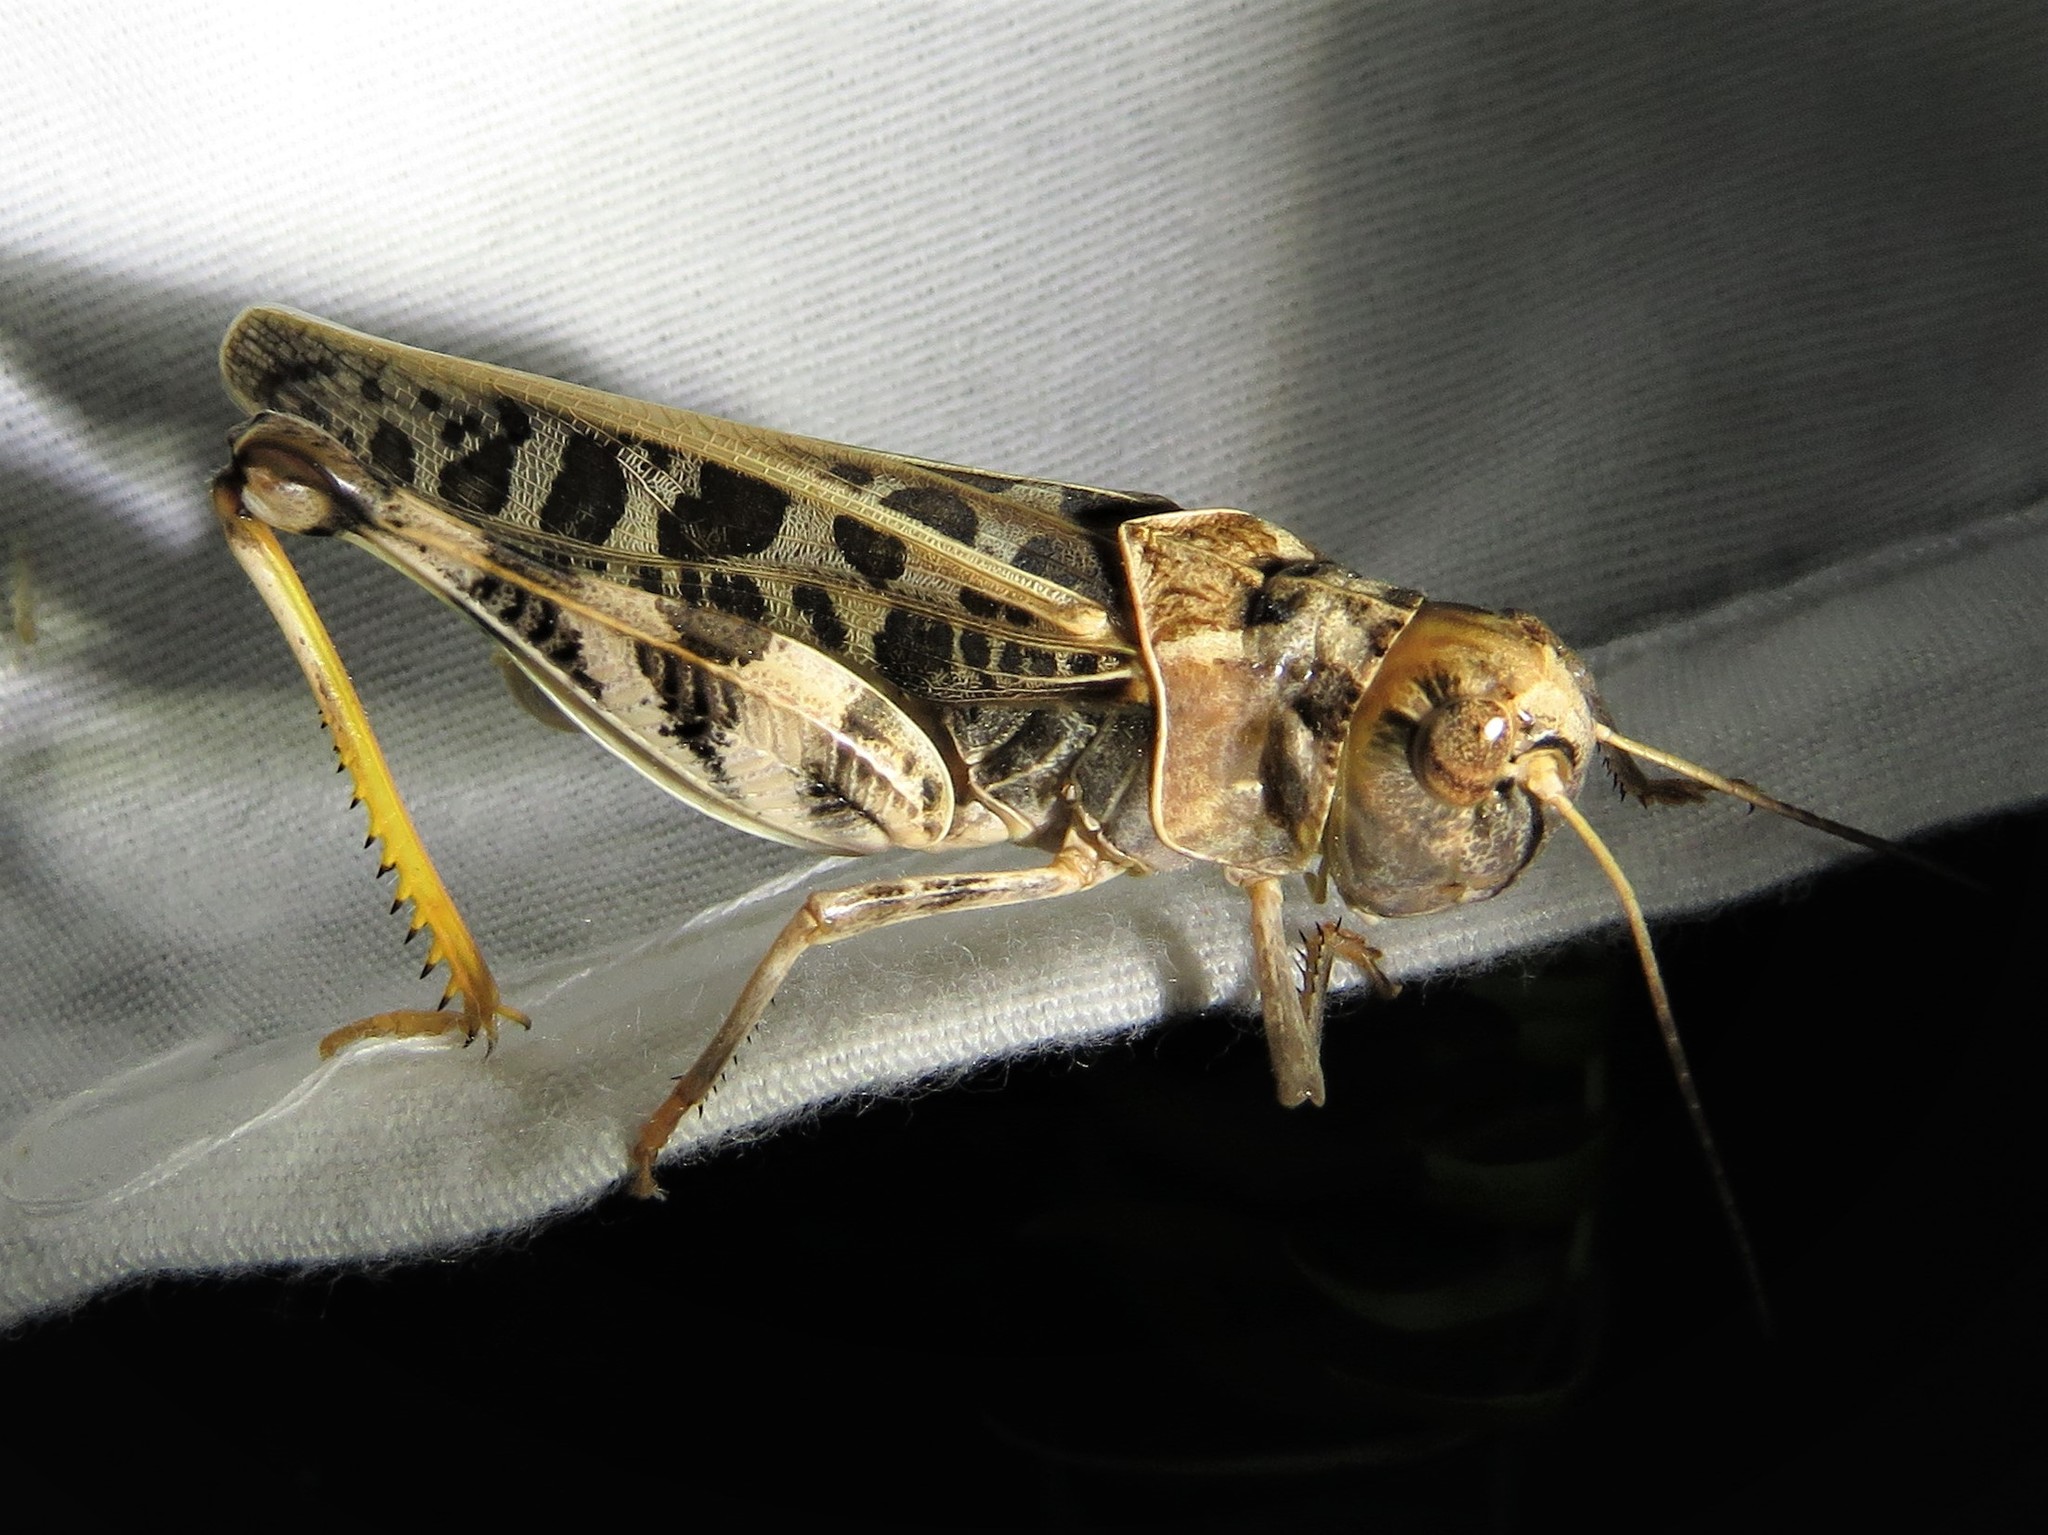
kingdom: Animalia
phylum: Arthropoda
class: Insecta
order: Orthoptera
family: Acrididae
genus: Hippiscus
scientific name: Hippiscus ocelote
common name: Wrinkled grasshopper
